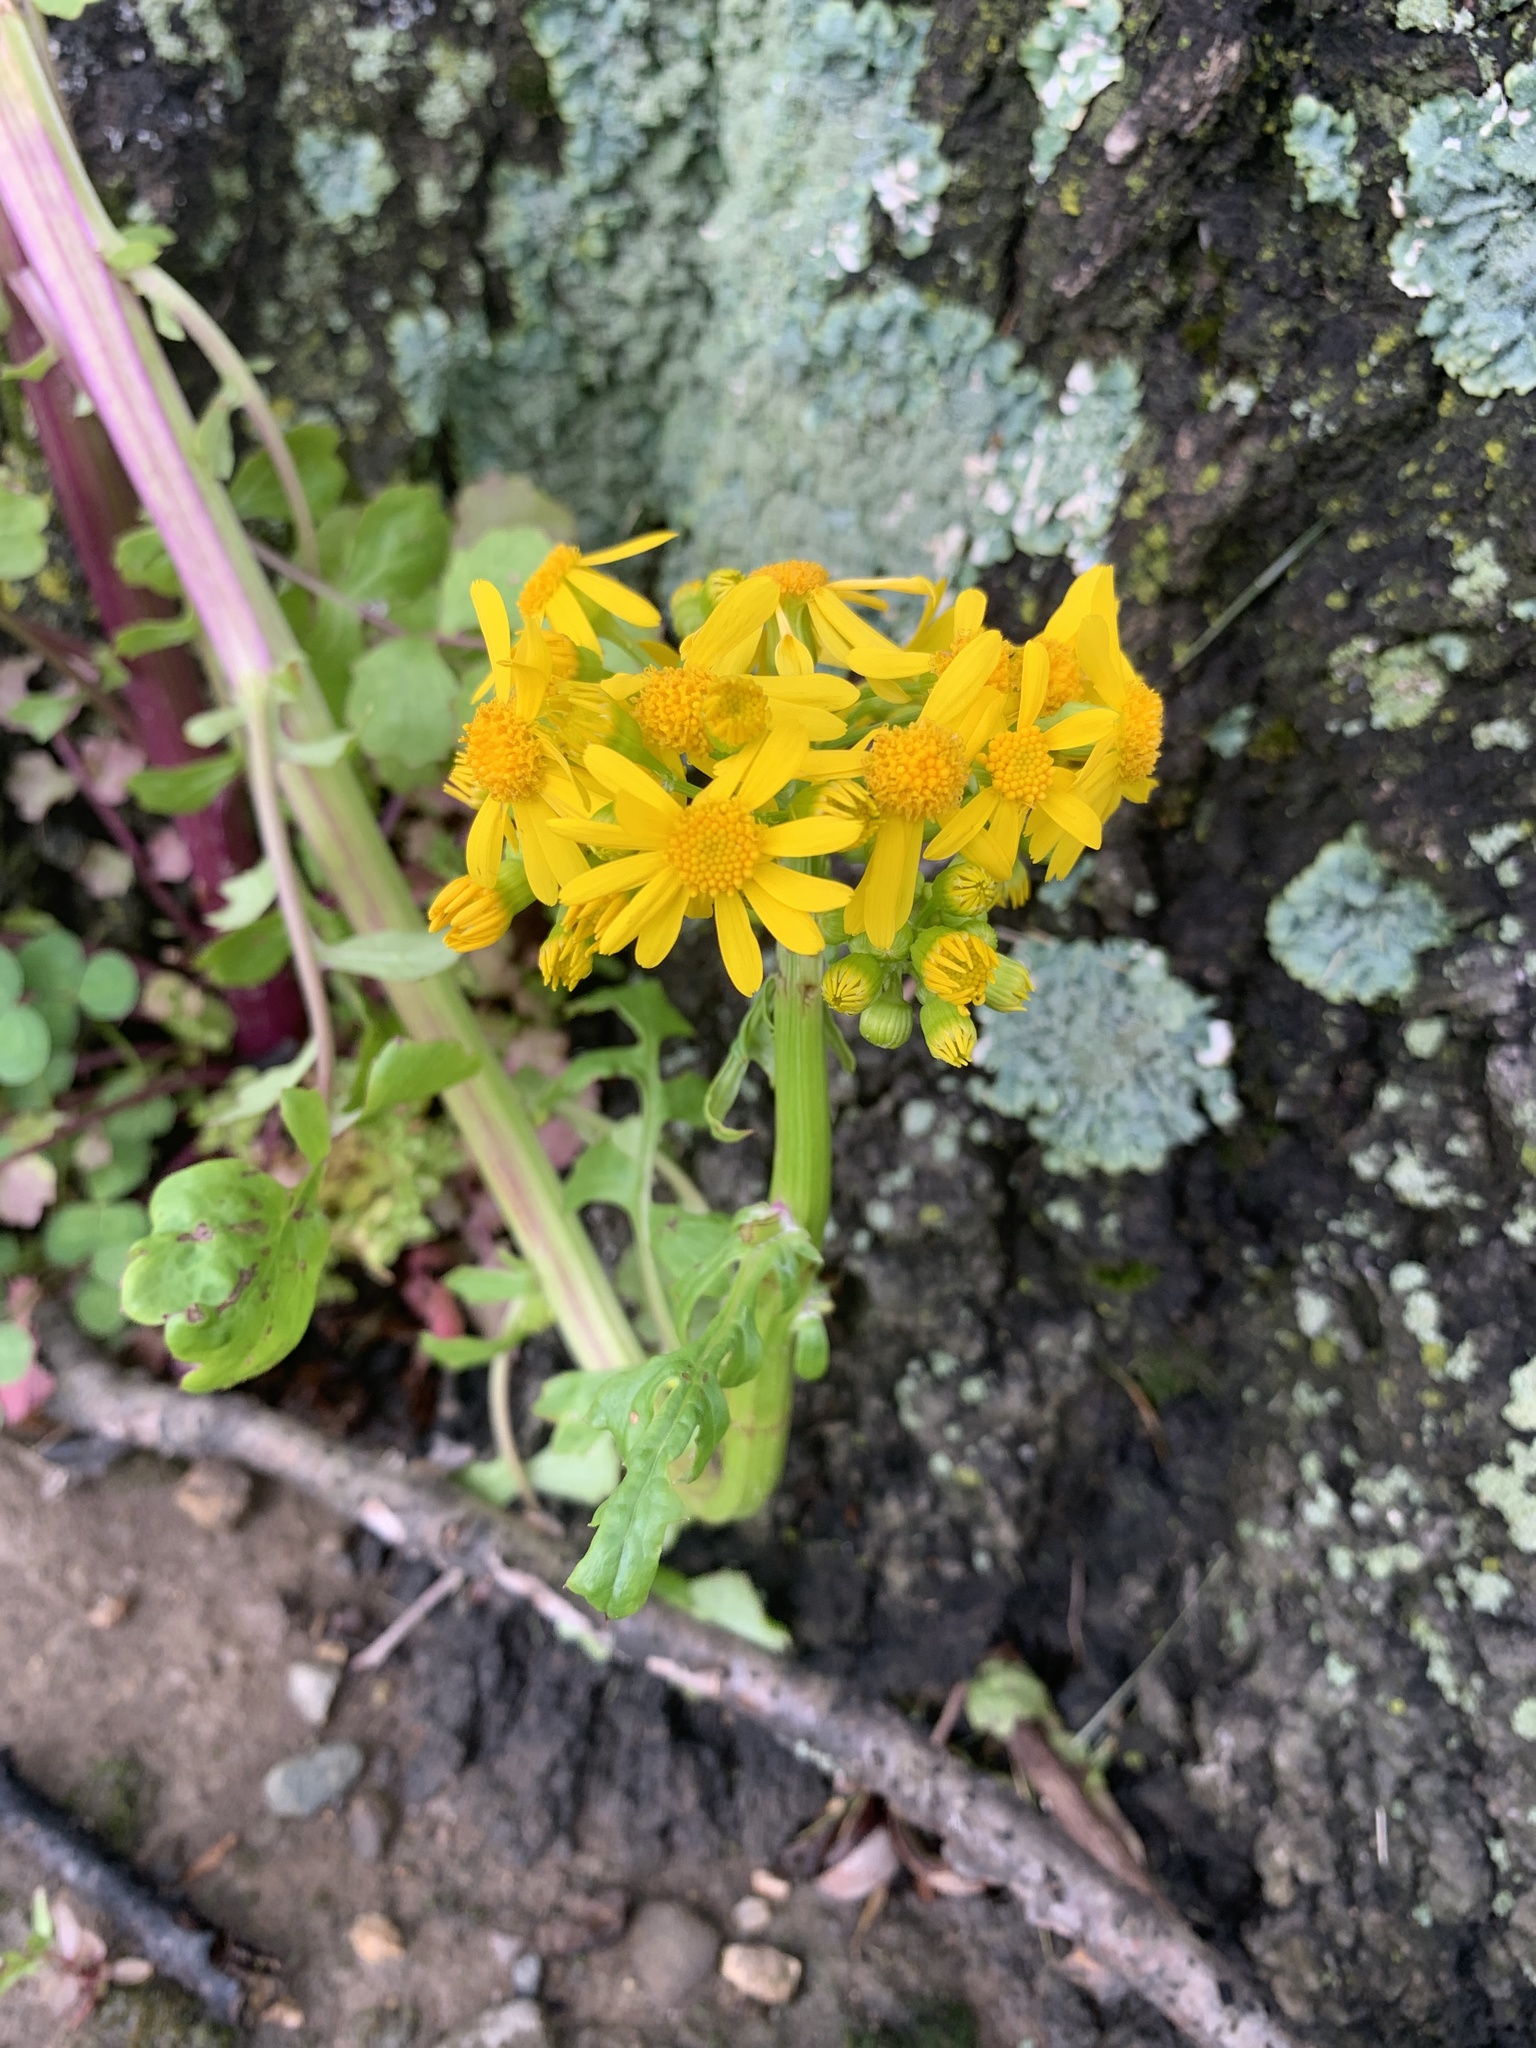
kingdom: Plantae
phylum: Tracheophyta
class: Magnoliopsida
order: Asterales
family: Asteraceae
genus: Packera
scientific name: Packera glabella
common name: Butterweed
